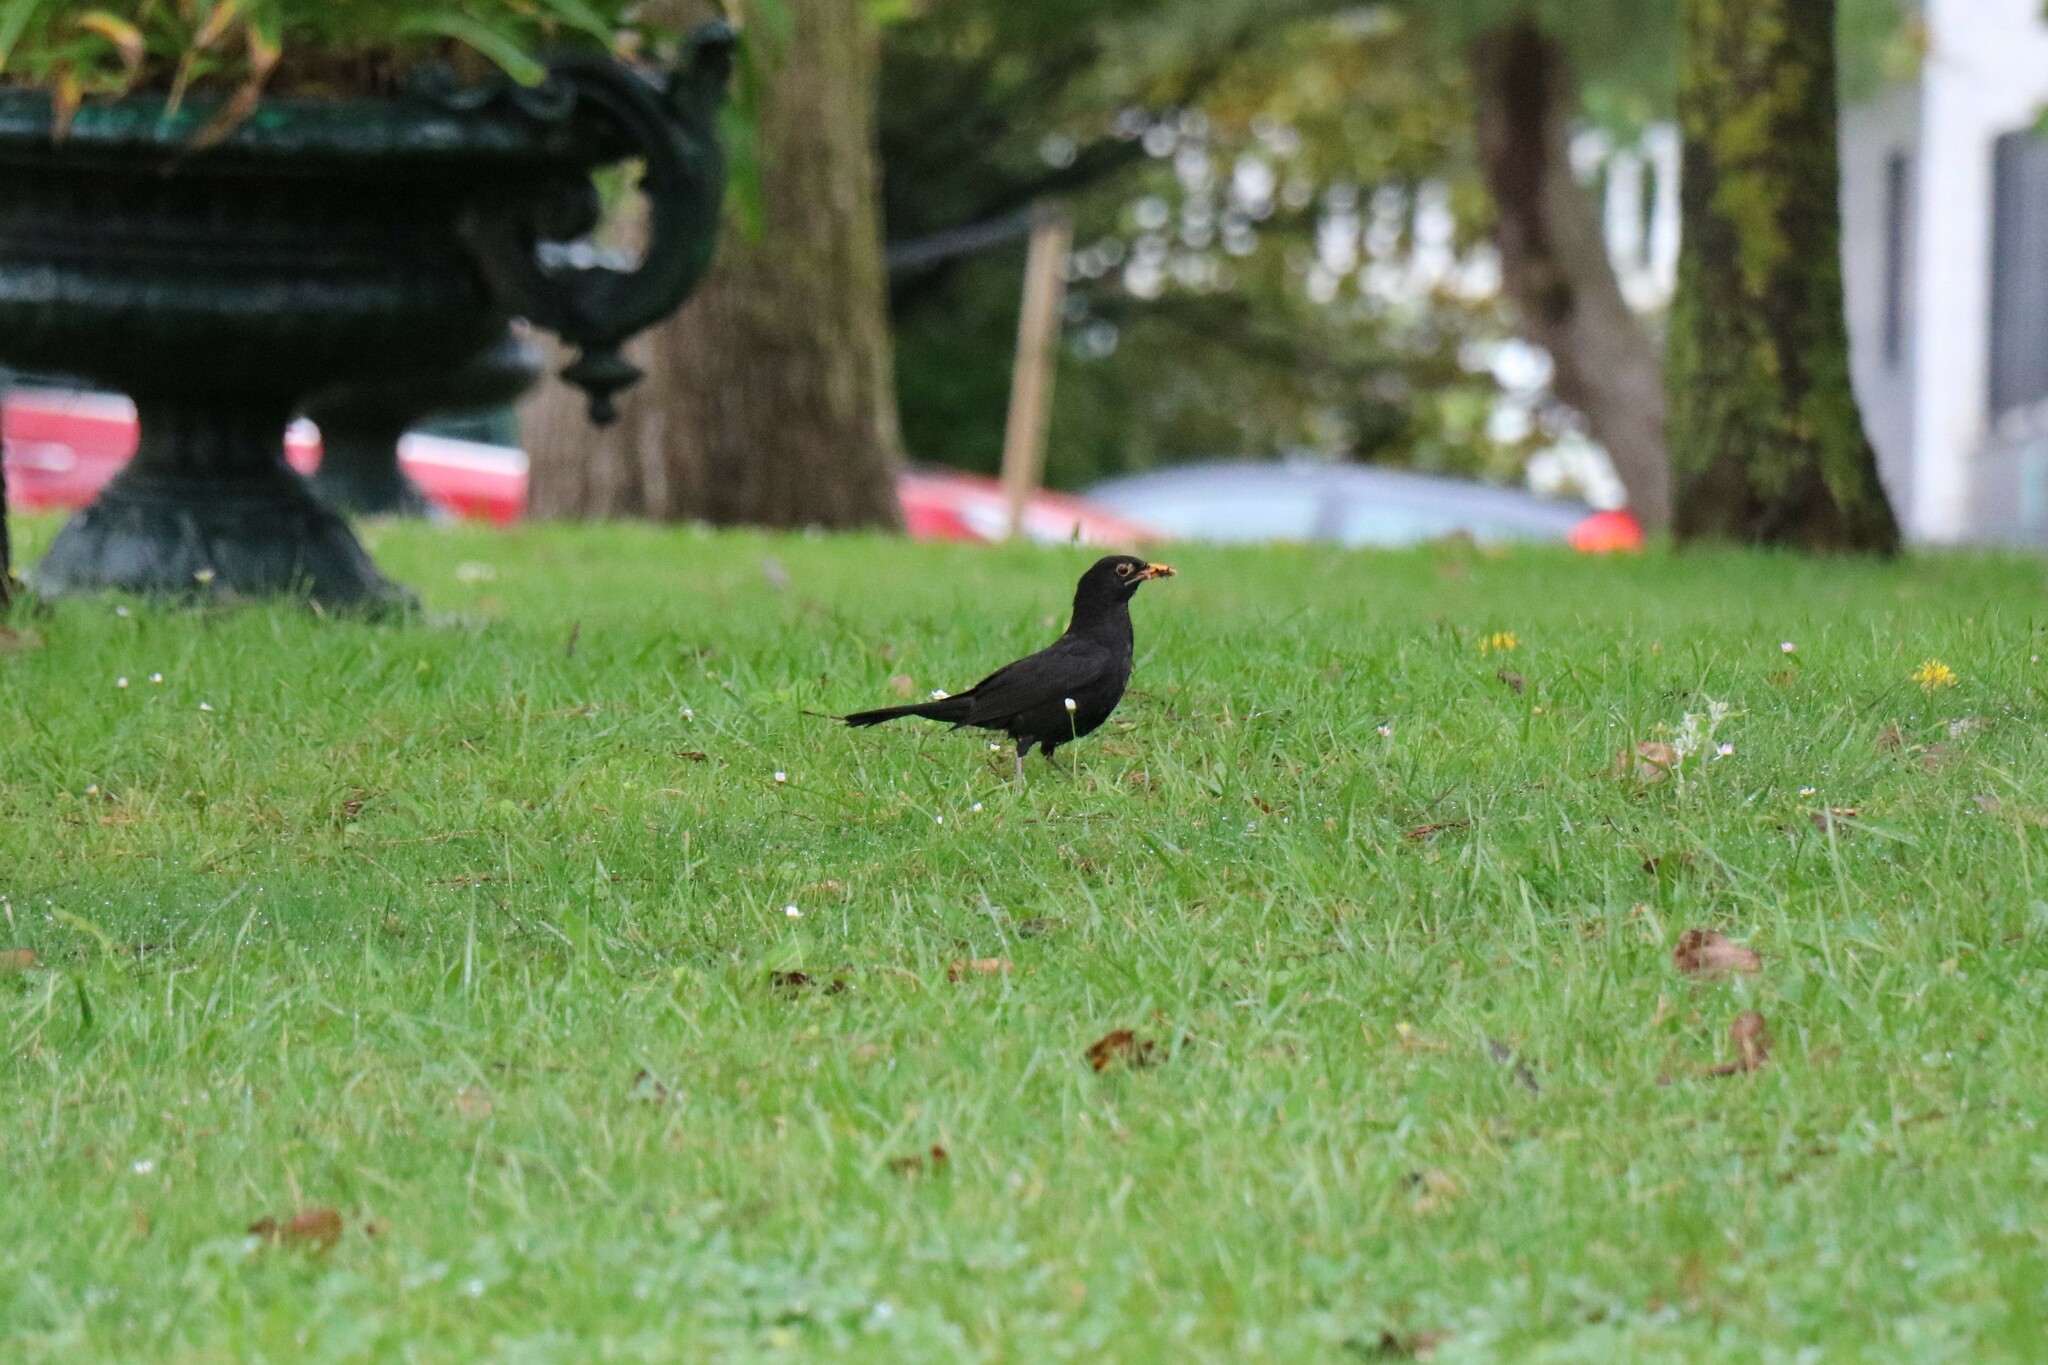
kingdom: Animalia
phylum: Chordata
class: Aves
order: Passeriformes
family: Turdidae
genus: Turdus
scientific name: Turdus merula
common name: Common blackbird
